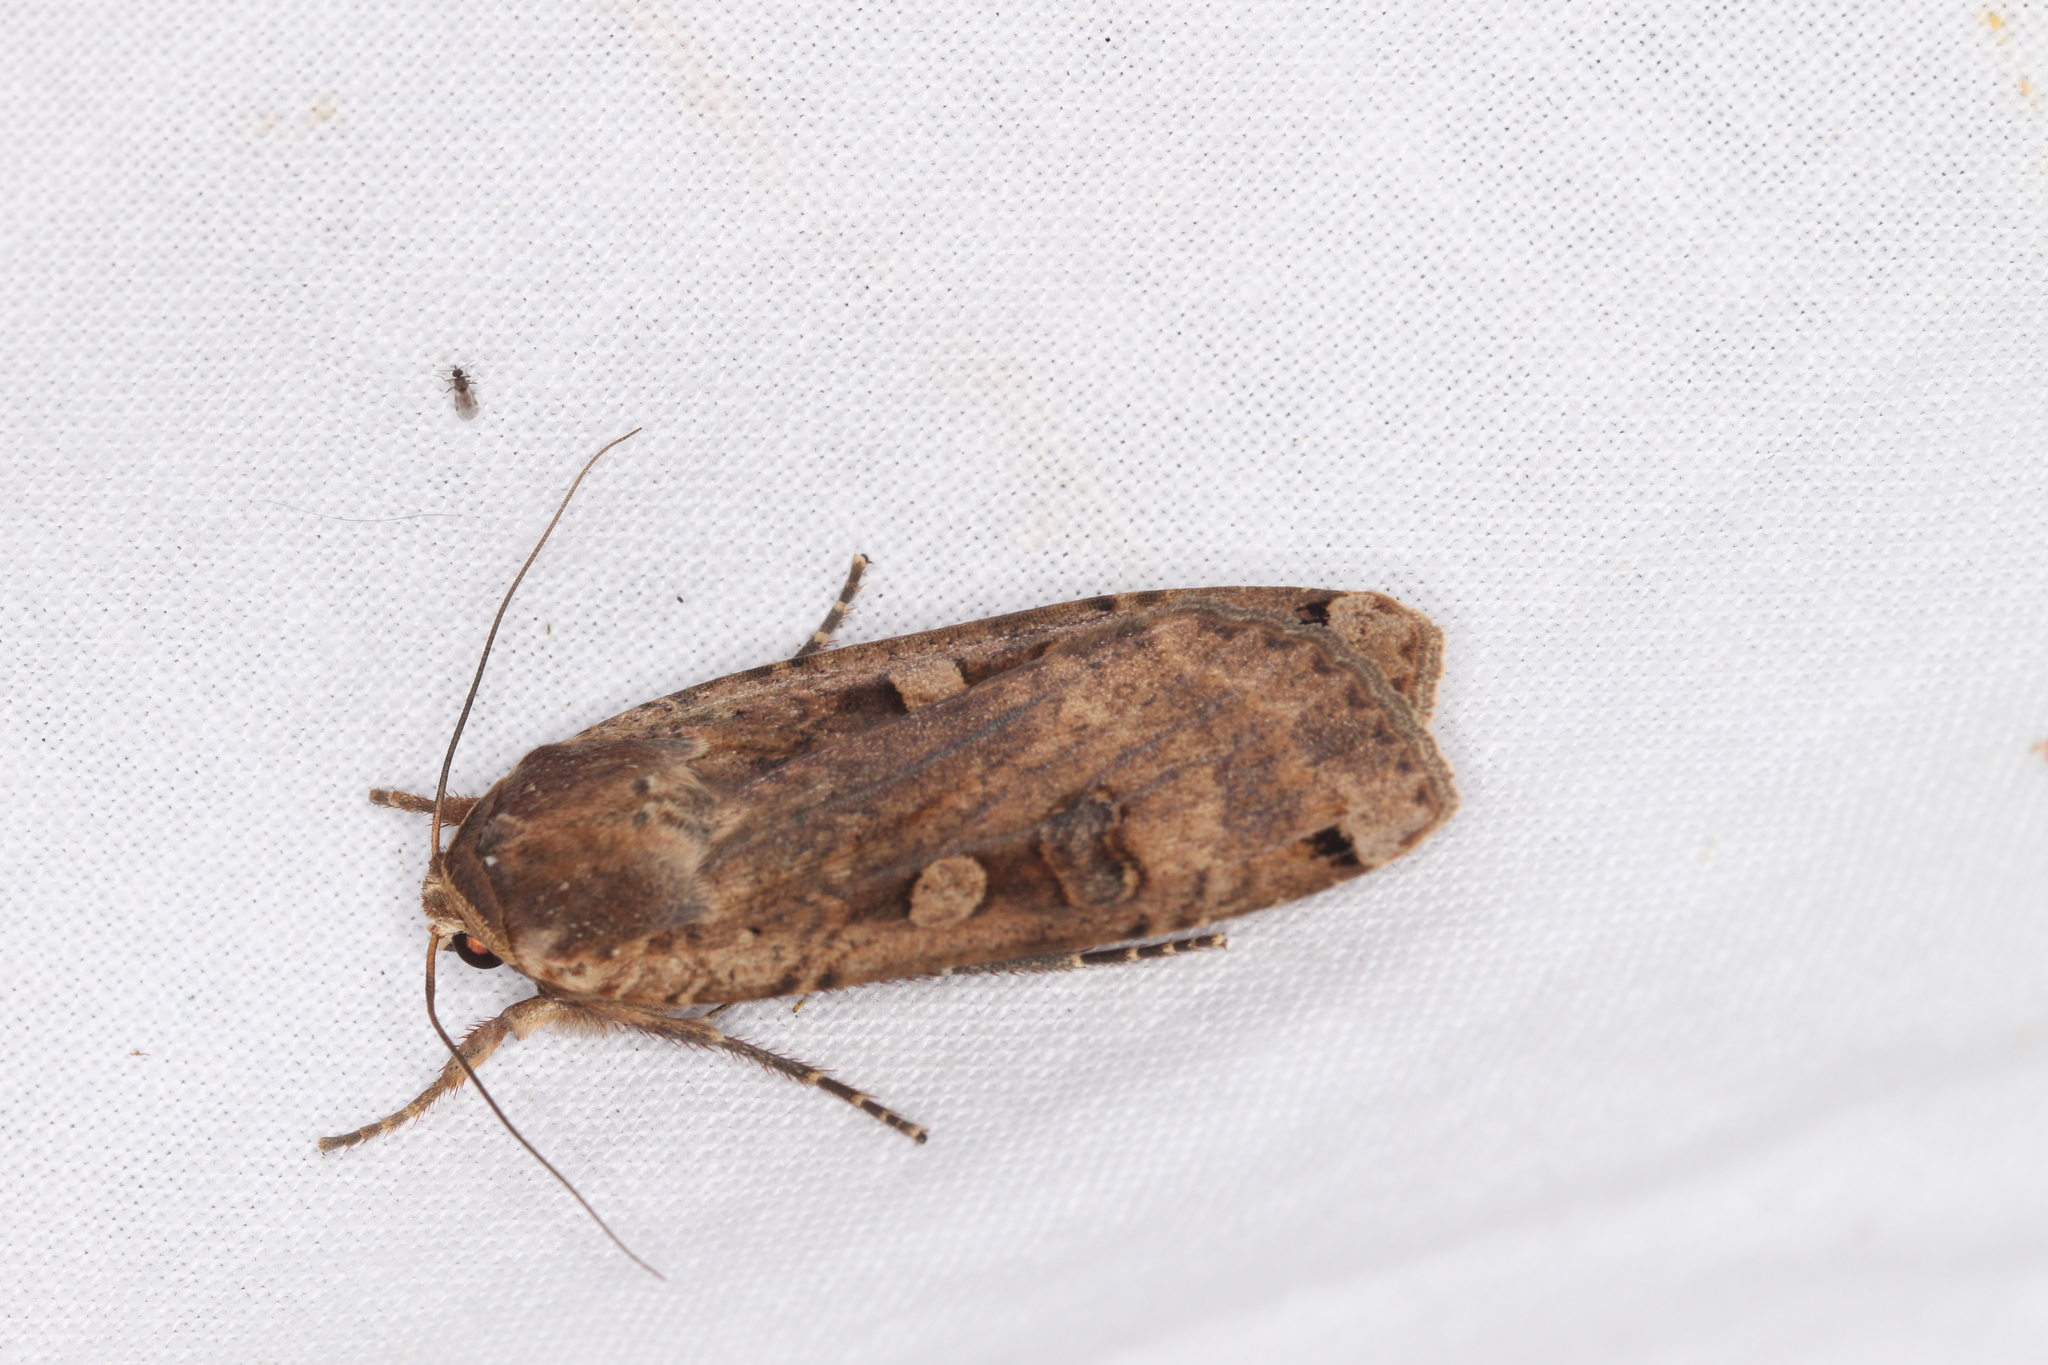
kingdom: Animalia
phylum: Arthropoda
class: Insecta
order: Lepidoptera
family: Noctuidae
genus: Noctua
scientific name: Noctua pronuba
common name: Large yellow underwing
